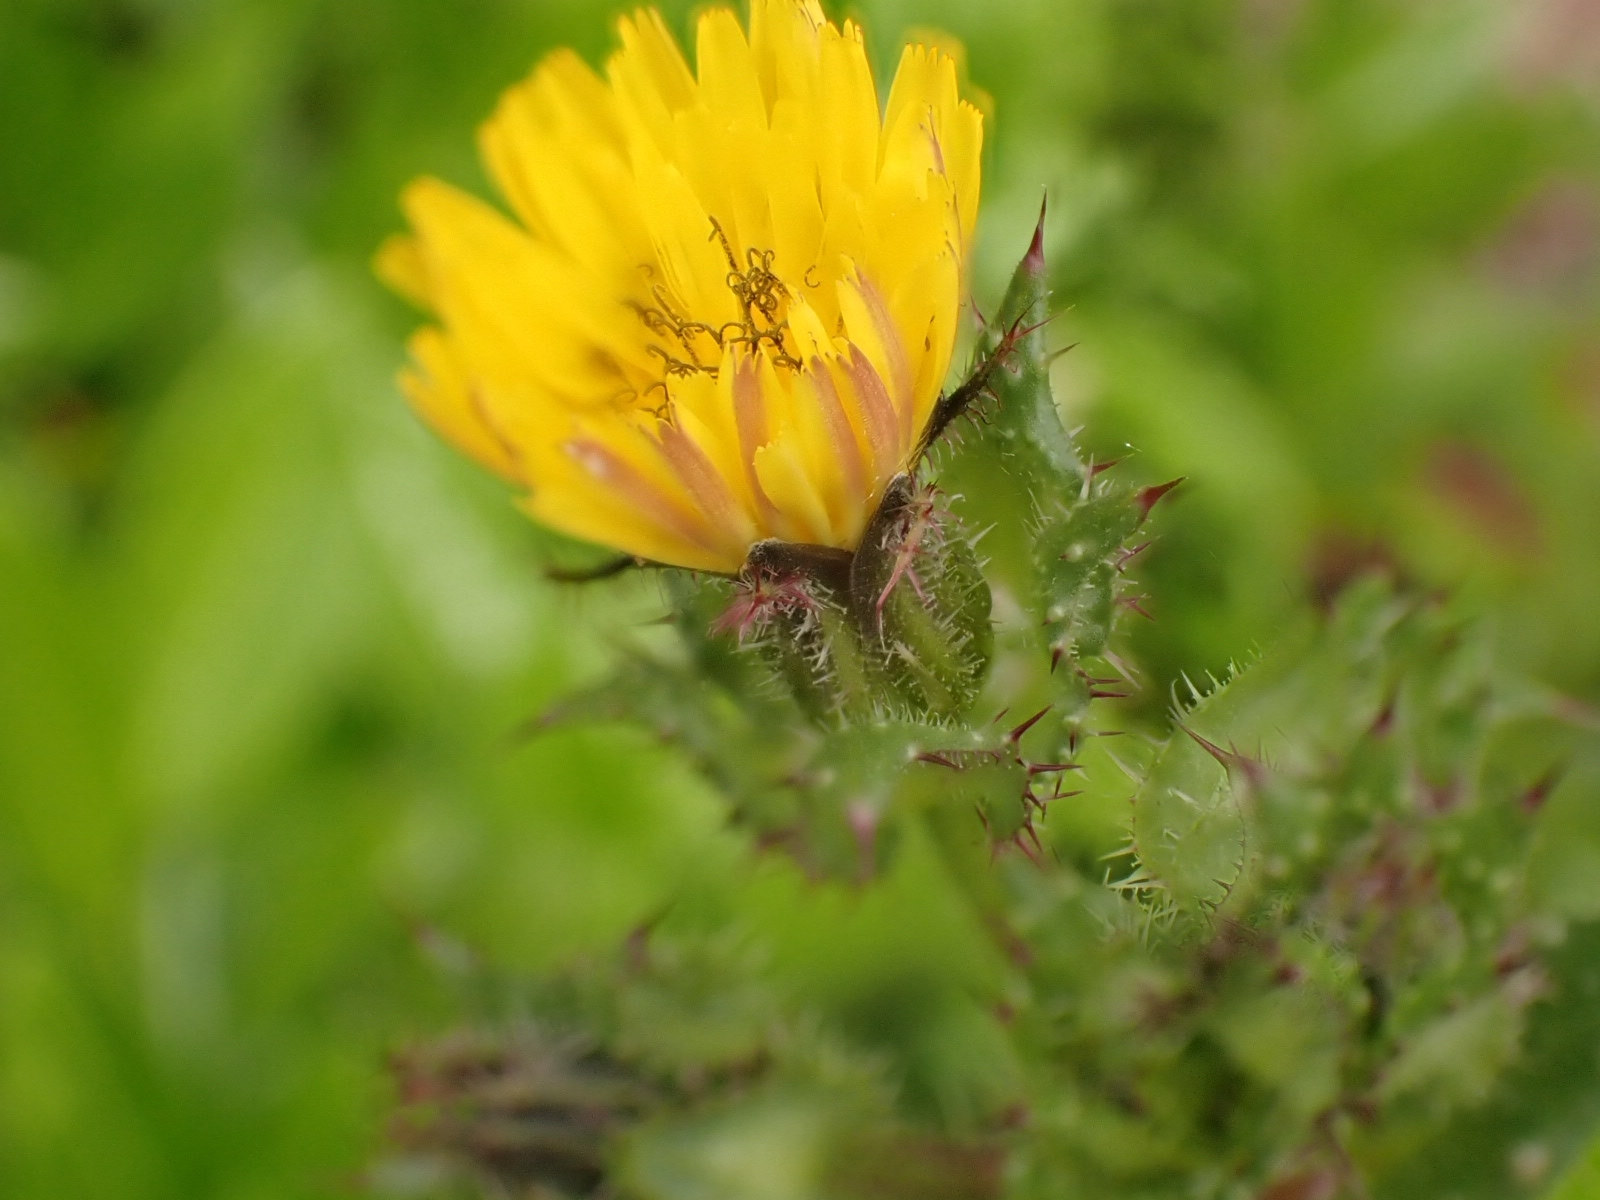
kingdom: Plantae
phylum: Tracheophyta
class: Magnoliopsida
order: Asterales
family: Asteraceae
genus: Helminthotheca
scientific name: Helminthotheca echioides
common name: Ox-tongue
